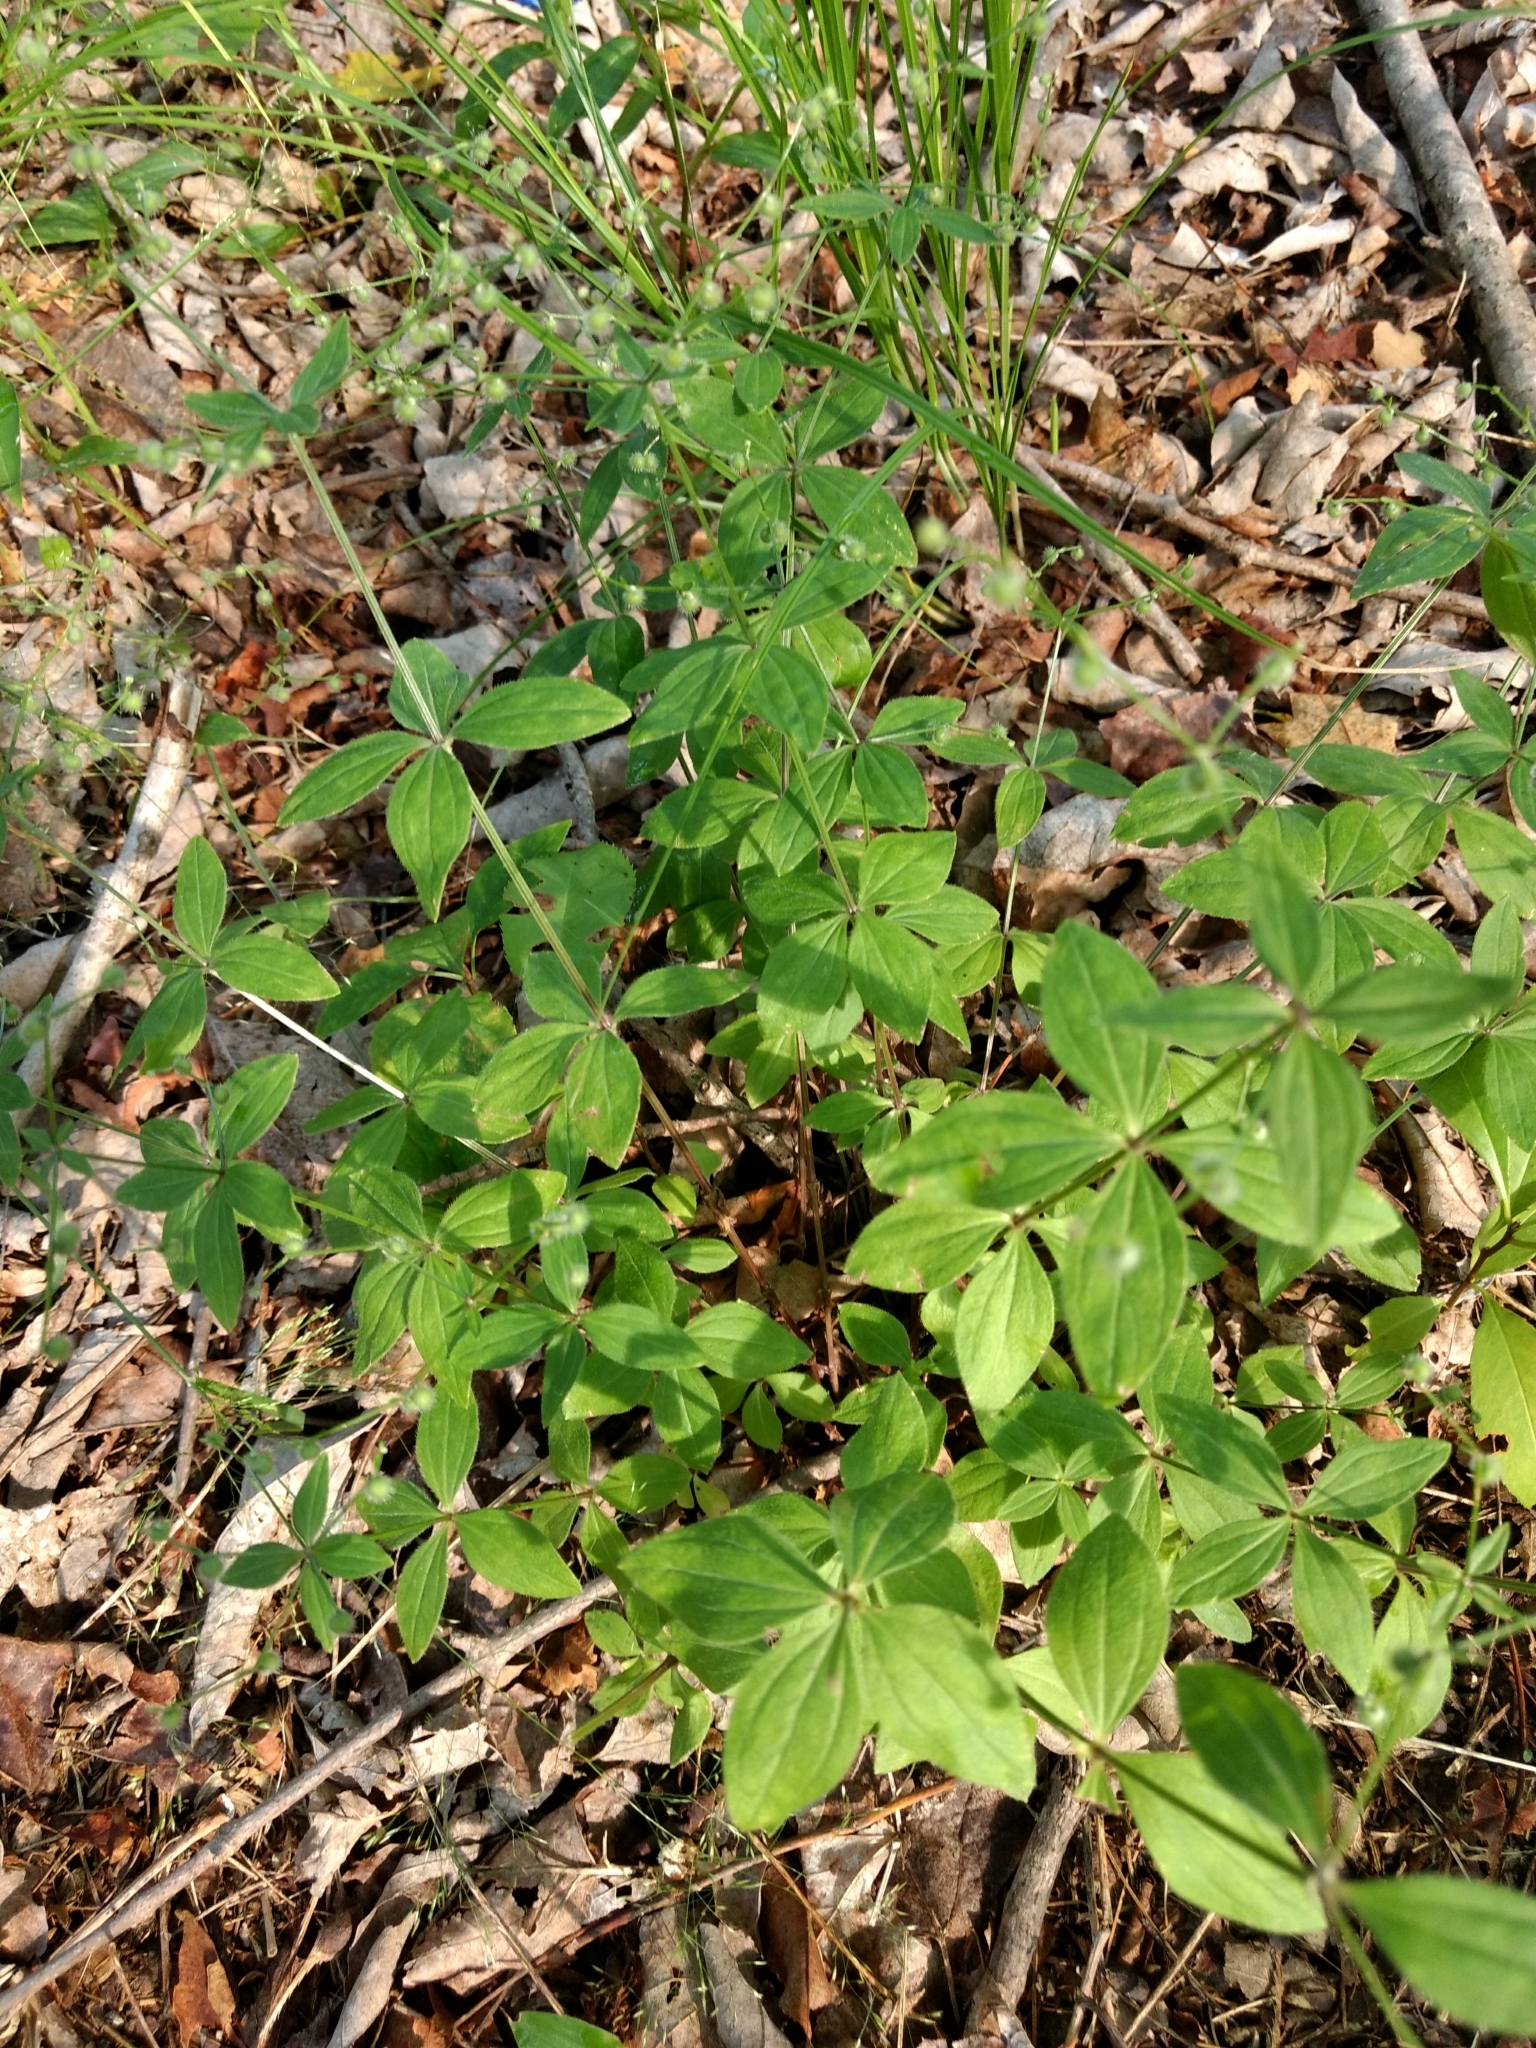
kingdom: Plantae
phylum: Tracheophyta
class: Magnoliopsida
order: Gentianales
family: Rubiaceae
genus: Galium
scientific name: Galium circaezans
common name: Forest bedstraw
